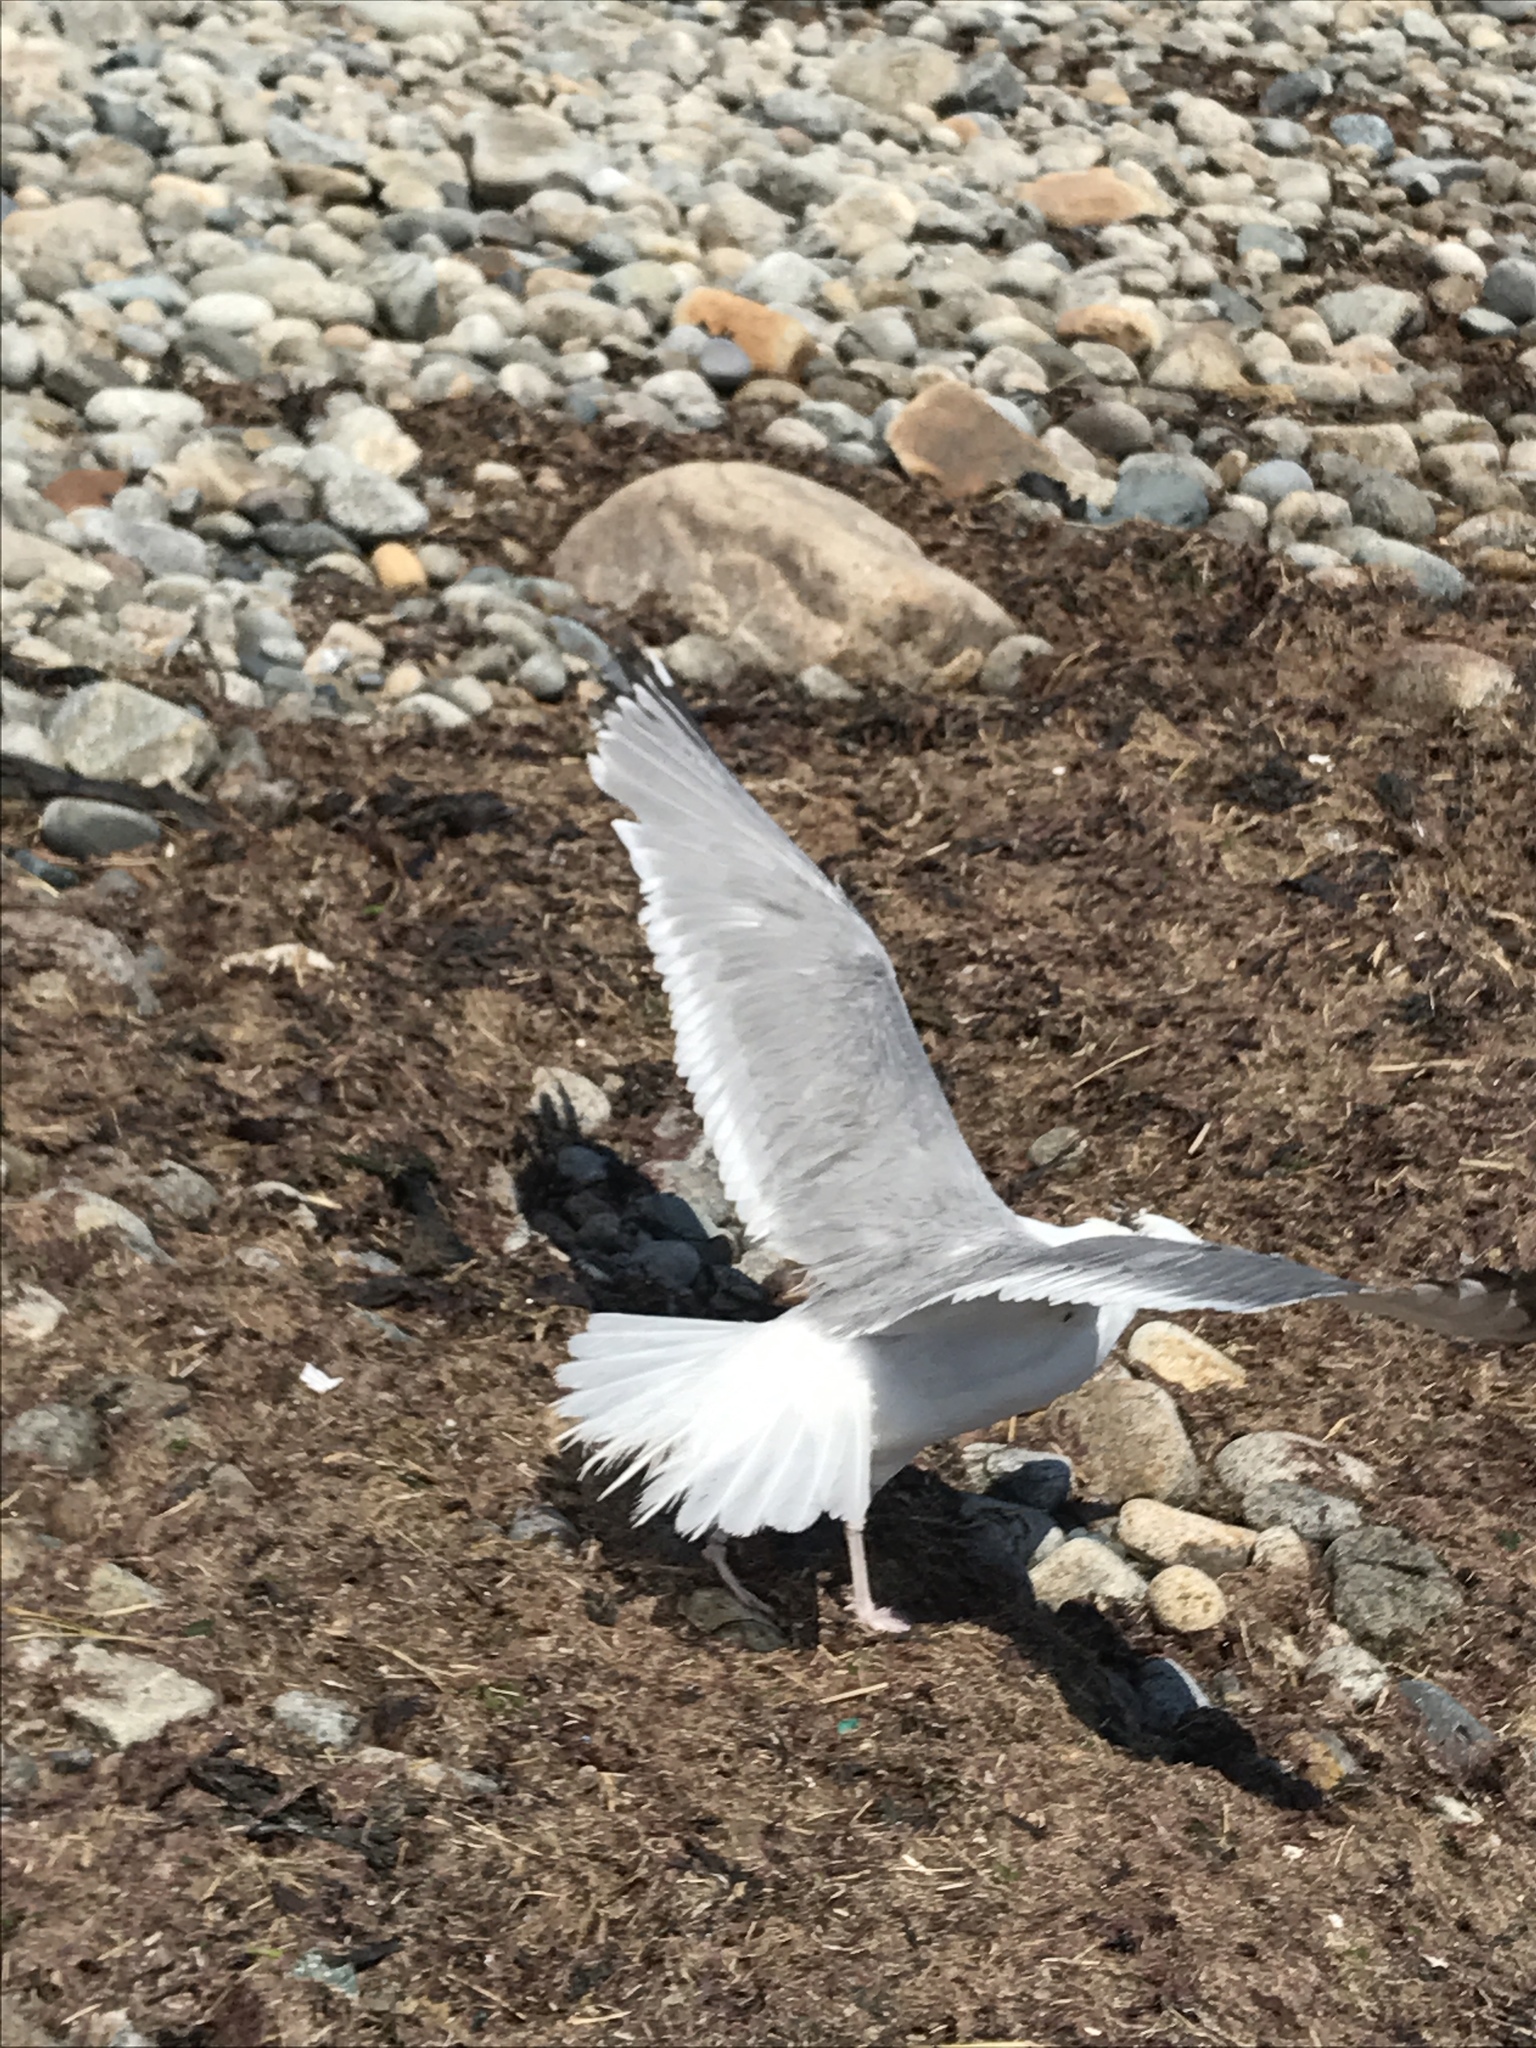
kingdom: Animalia
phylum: Chordata
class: Aves
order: Charadriiformes
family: Laridae
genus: Larus
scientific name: Larus argentatus
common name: Herring gull
